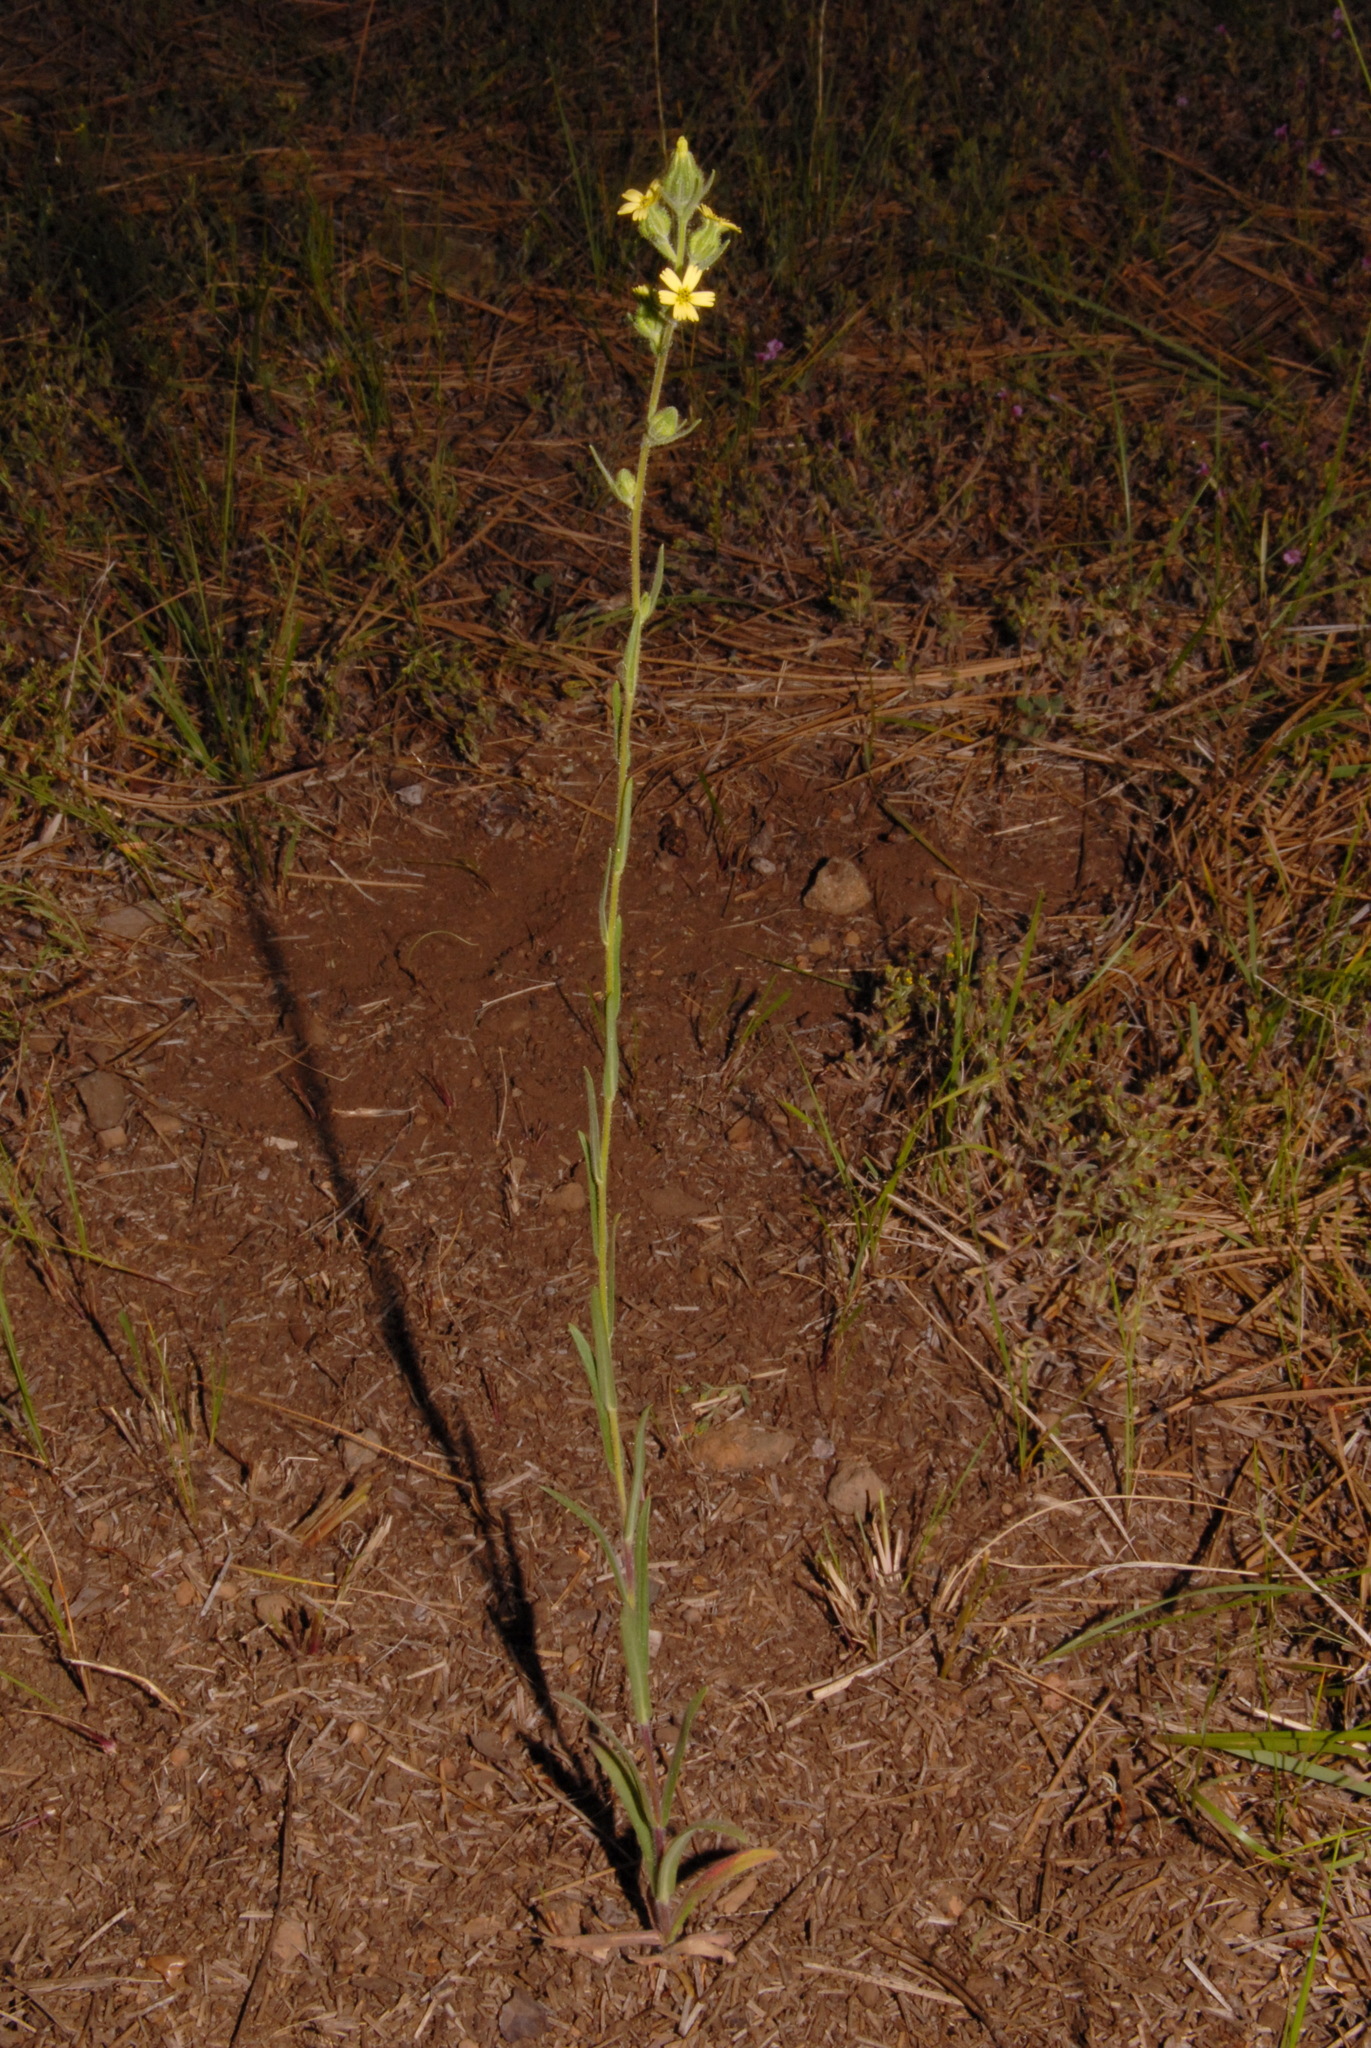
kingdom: Plantae
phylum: Tracheophyta
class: Magnoliopsida
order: Asterales
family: Asteraceae
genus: Madia
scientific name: Madia gracilis
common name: Grassy tarweed
